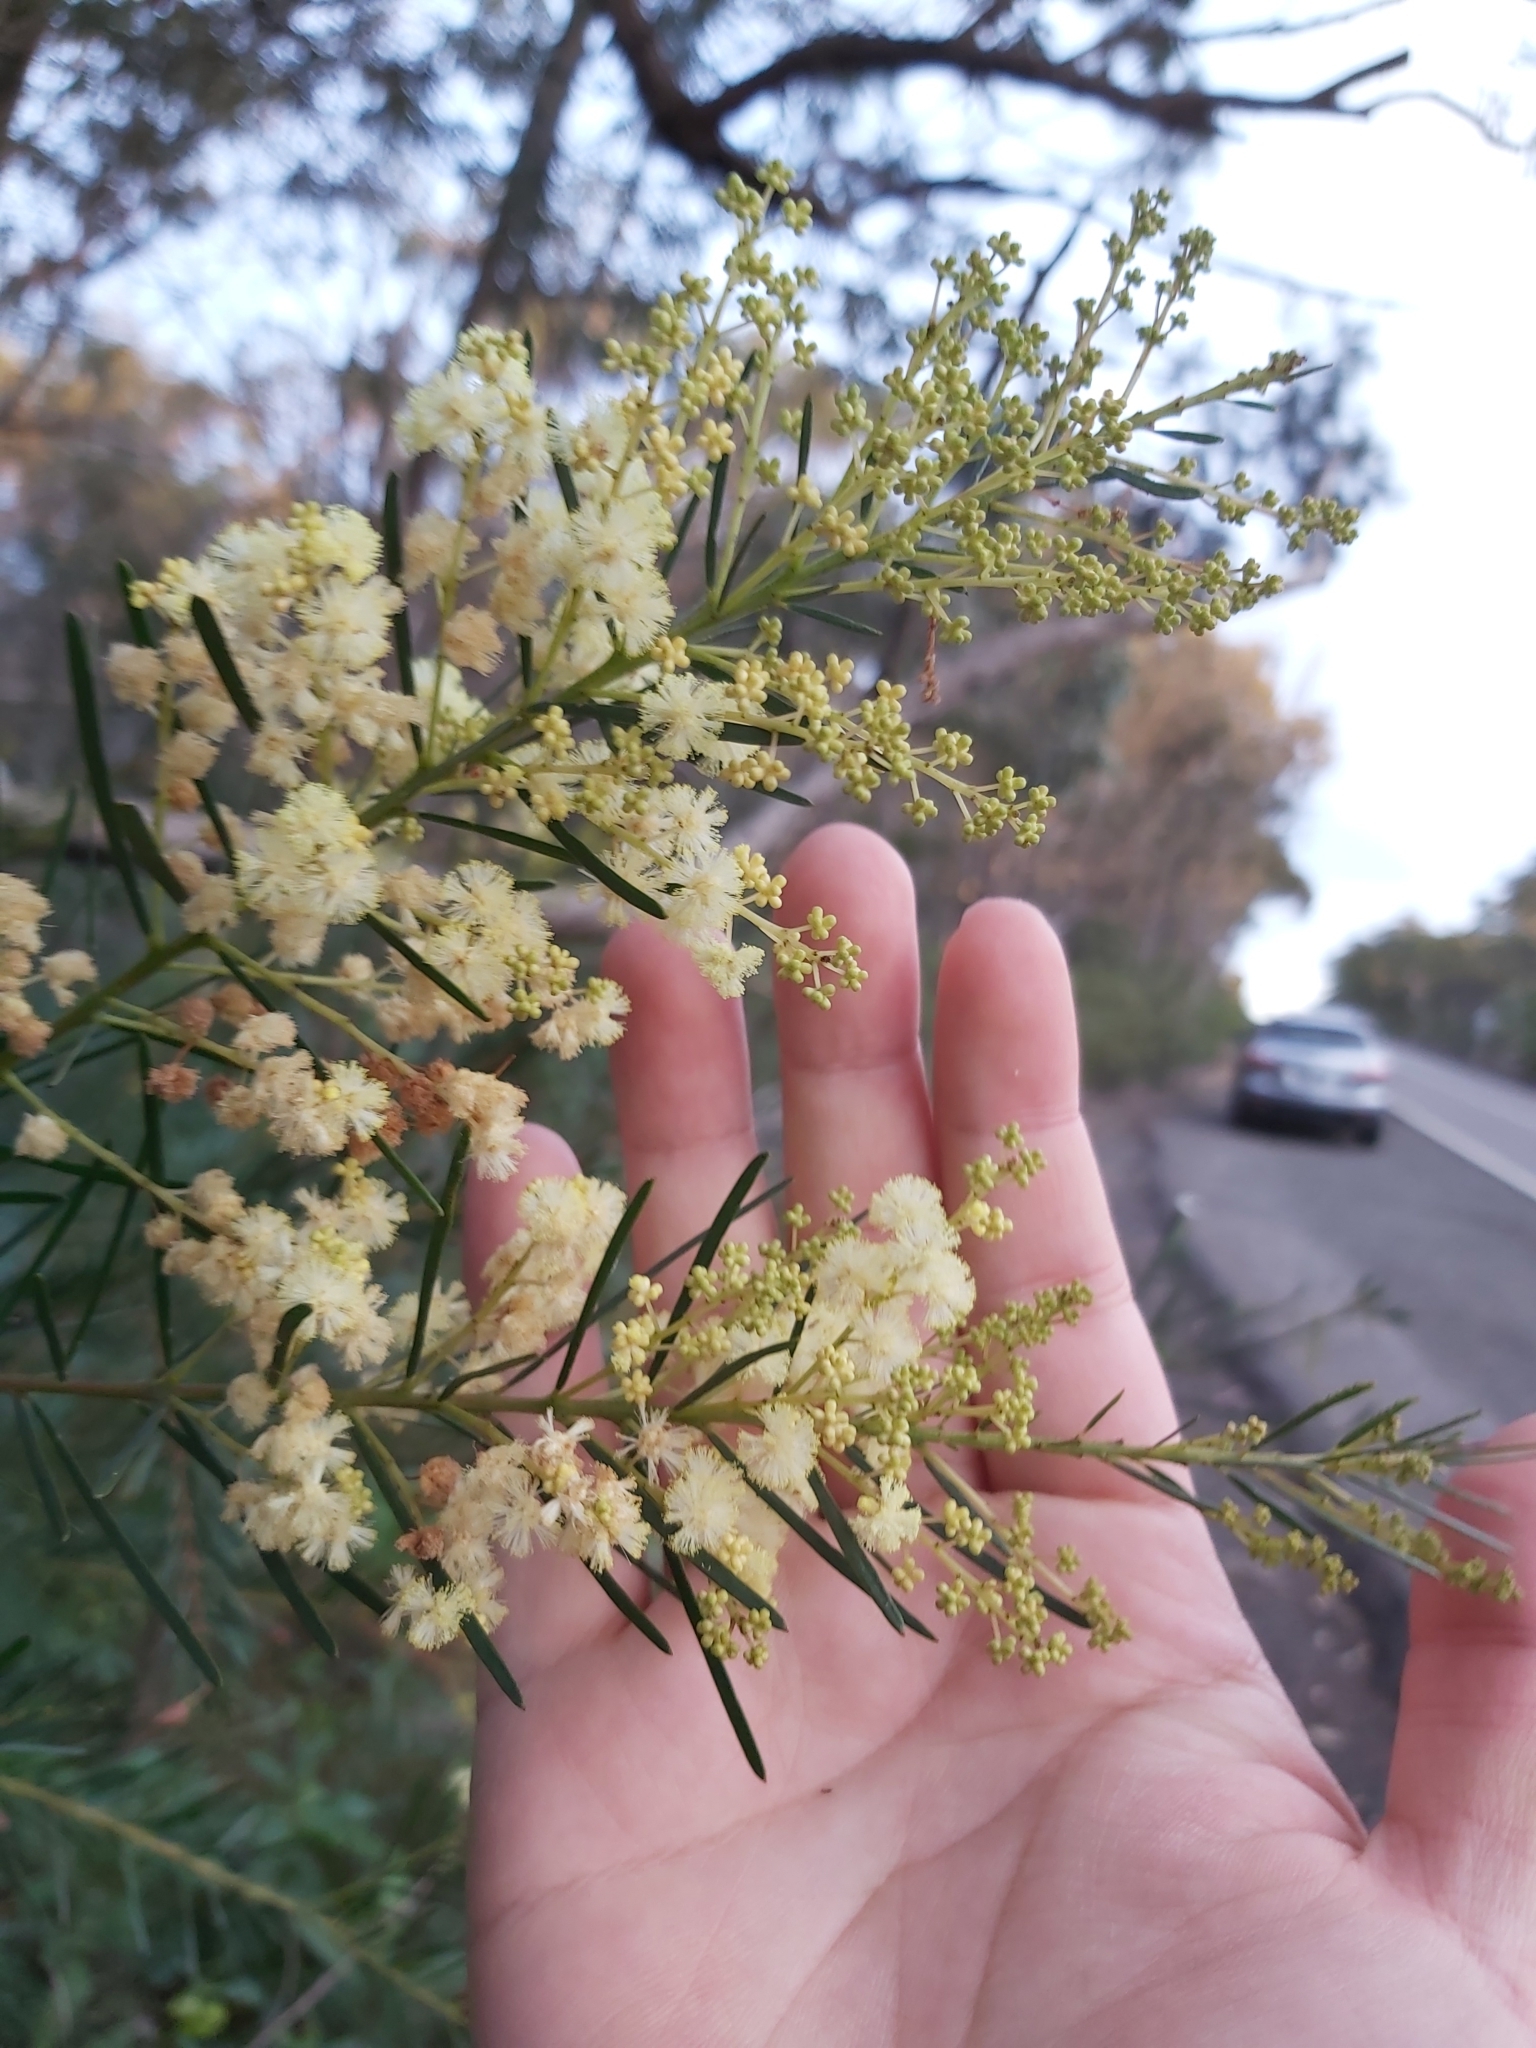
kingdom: Plantae
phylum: Tracheophyta
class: Magnoliopsida
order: Fabales
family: Fabaceae
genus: Acacia
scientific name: Acacia linifolia
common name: White wattle
